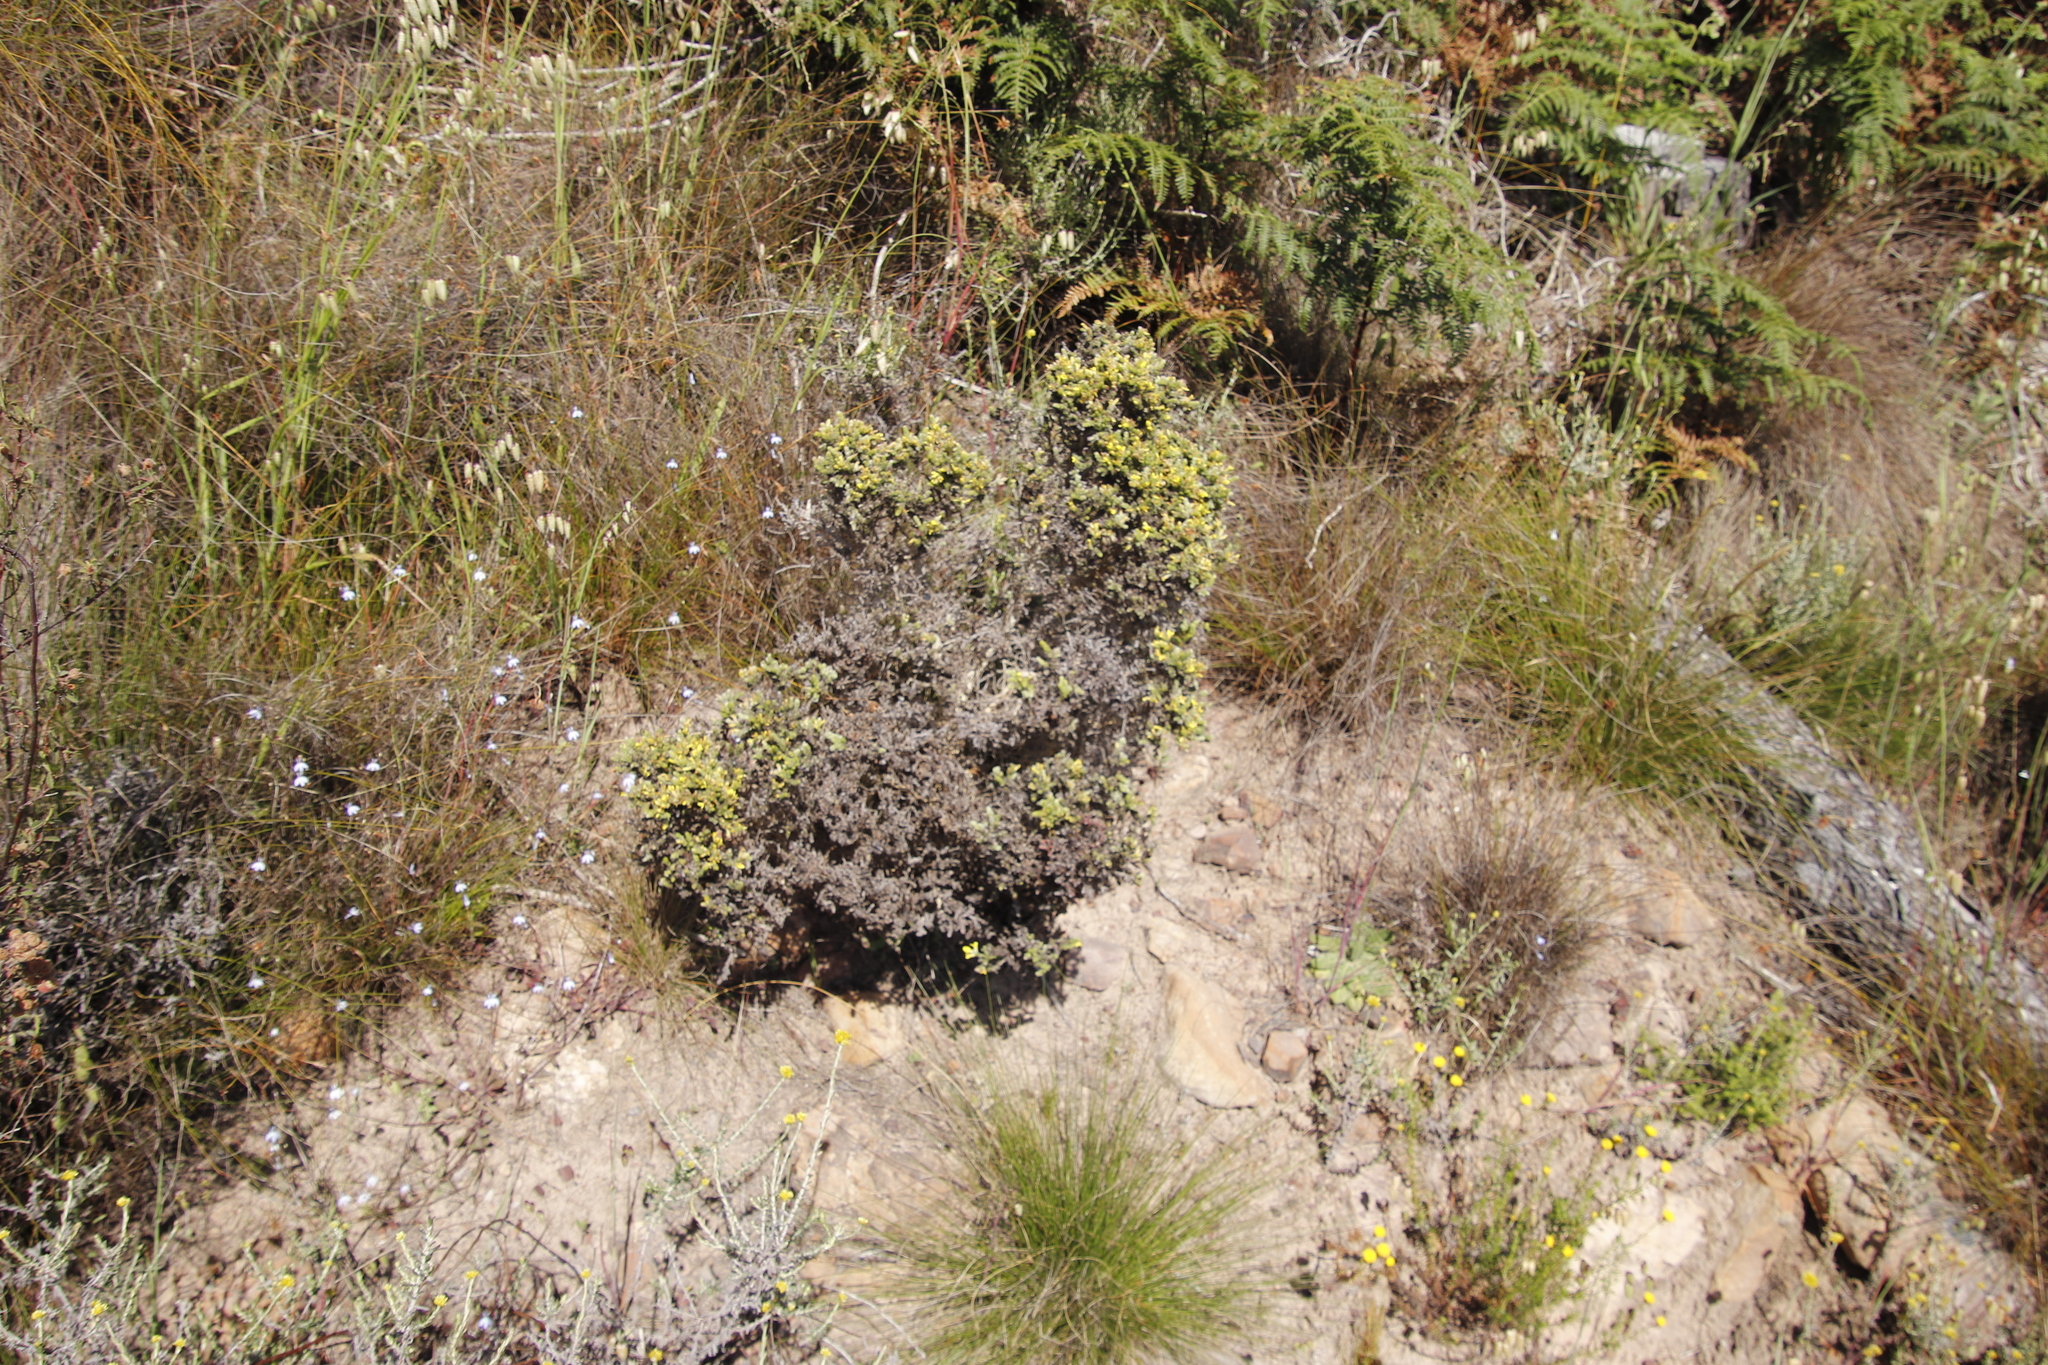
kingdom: Plantae
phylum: Tracheophyta
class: Magnoliopsida
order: Fabales
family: Fabaceae
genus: Aspalathus
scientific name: Aspalathus ericifolia
